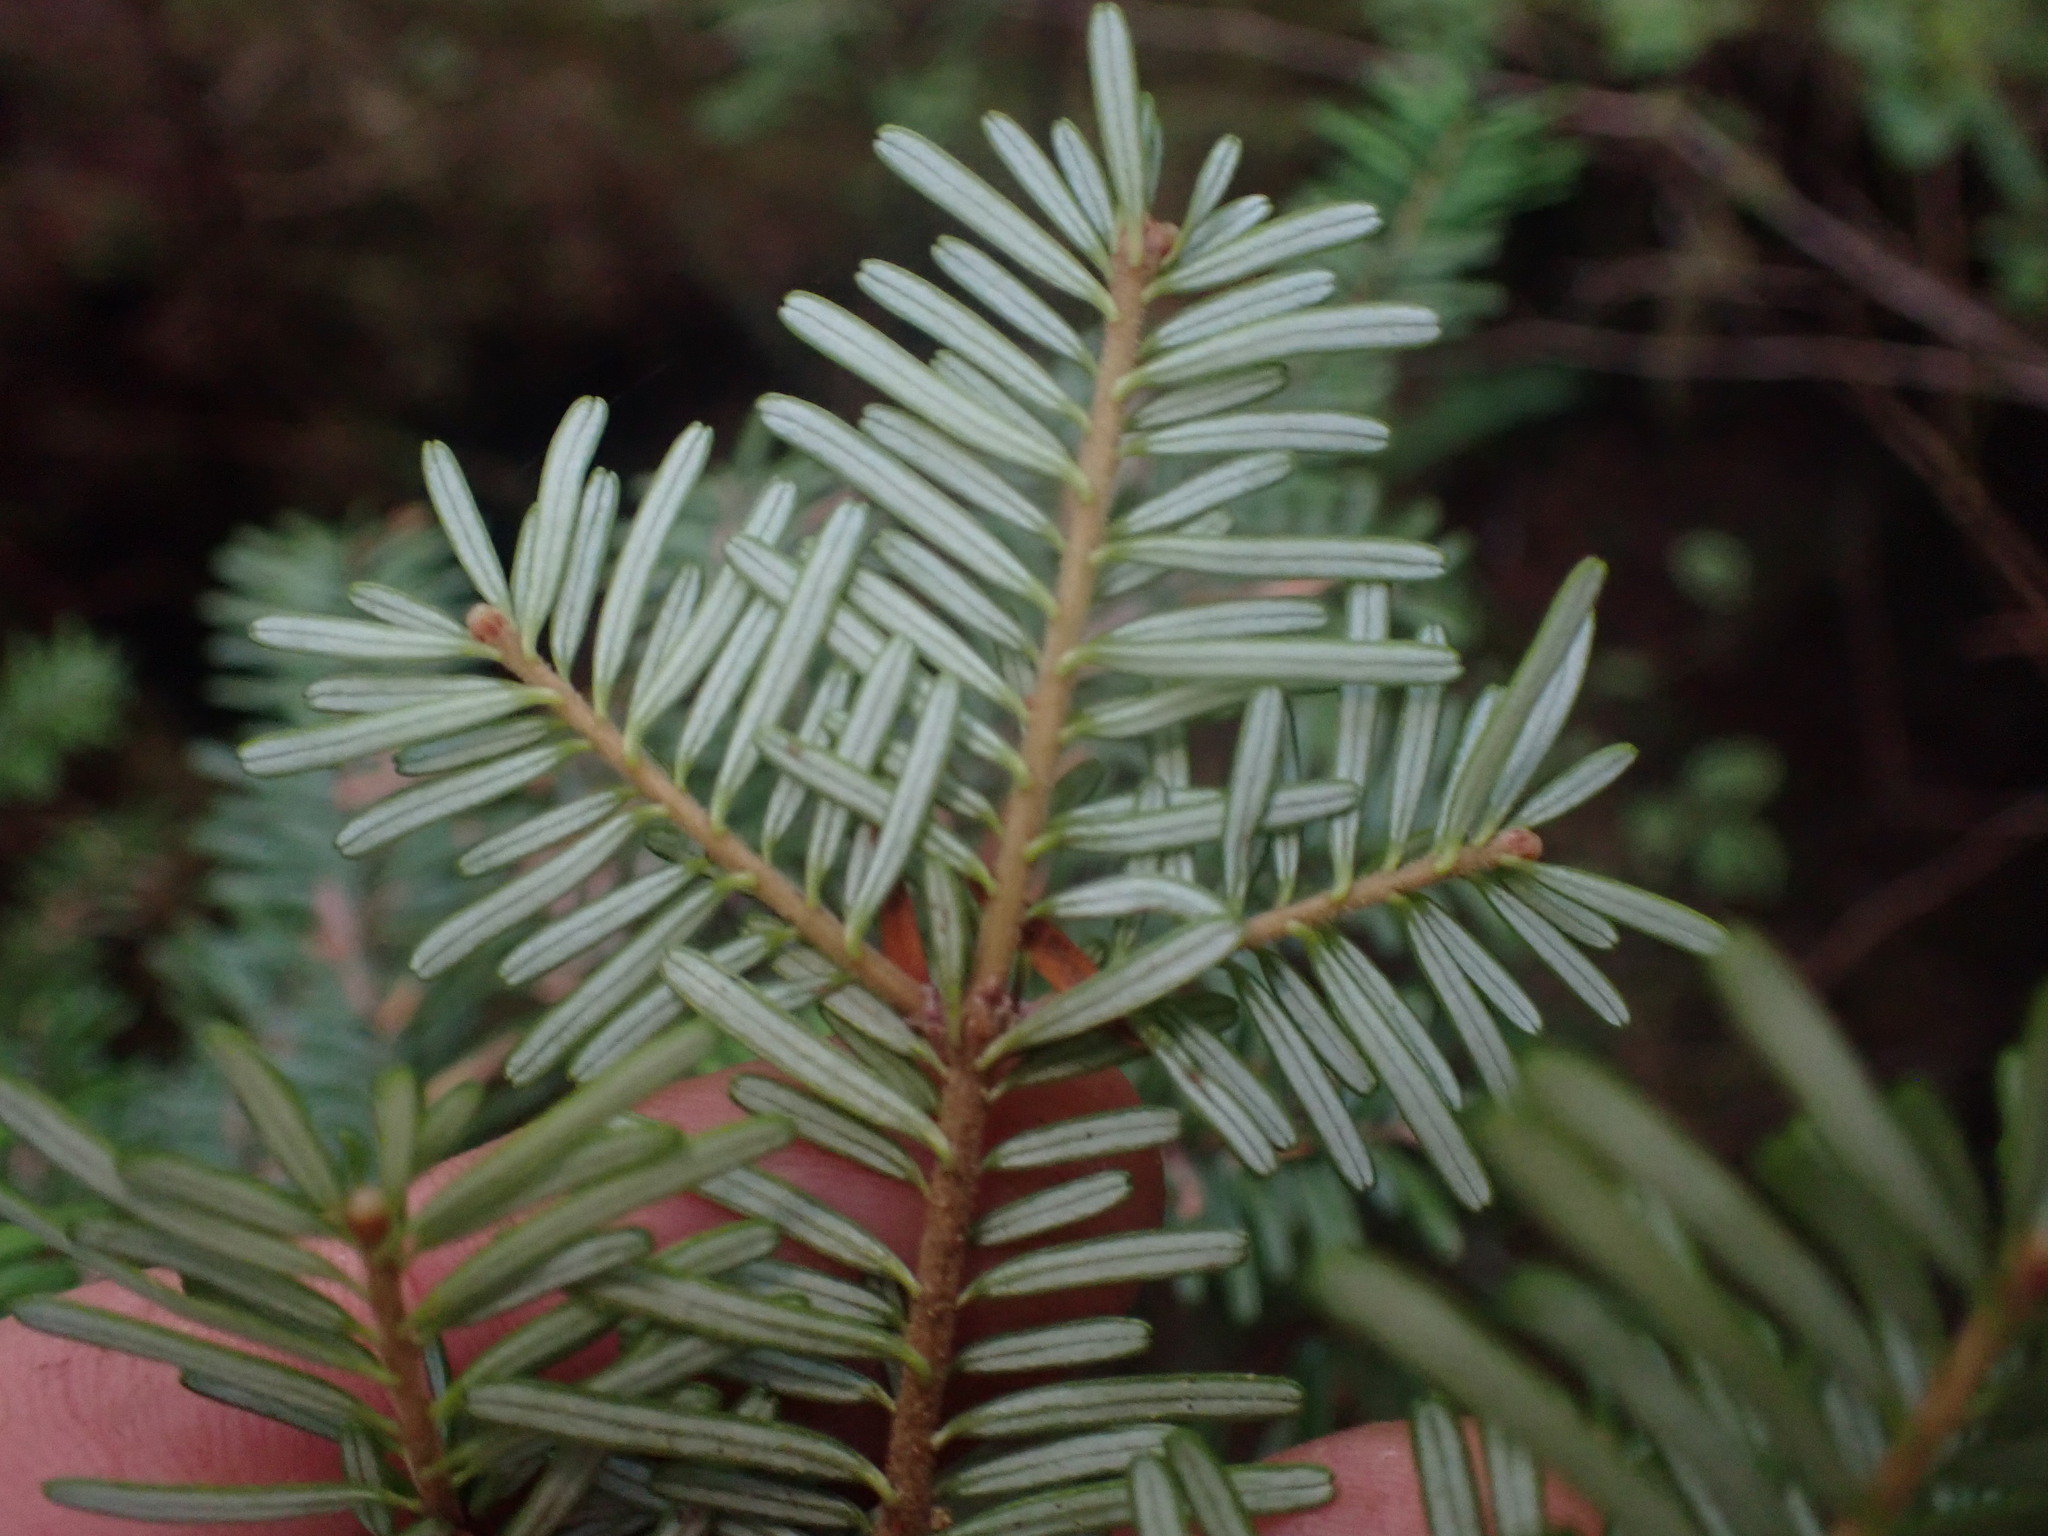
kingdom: Plantae
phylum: Tracheophyta
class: Pinopsida
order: Pinales
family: Pinaceae
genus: Abies
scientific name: Abies amabilis
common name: Pacific silver fir
